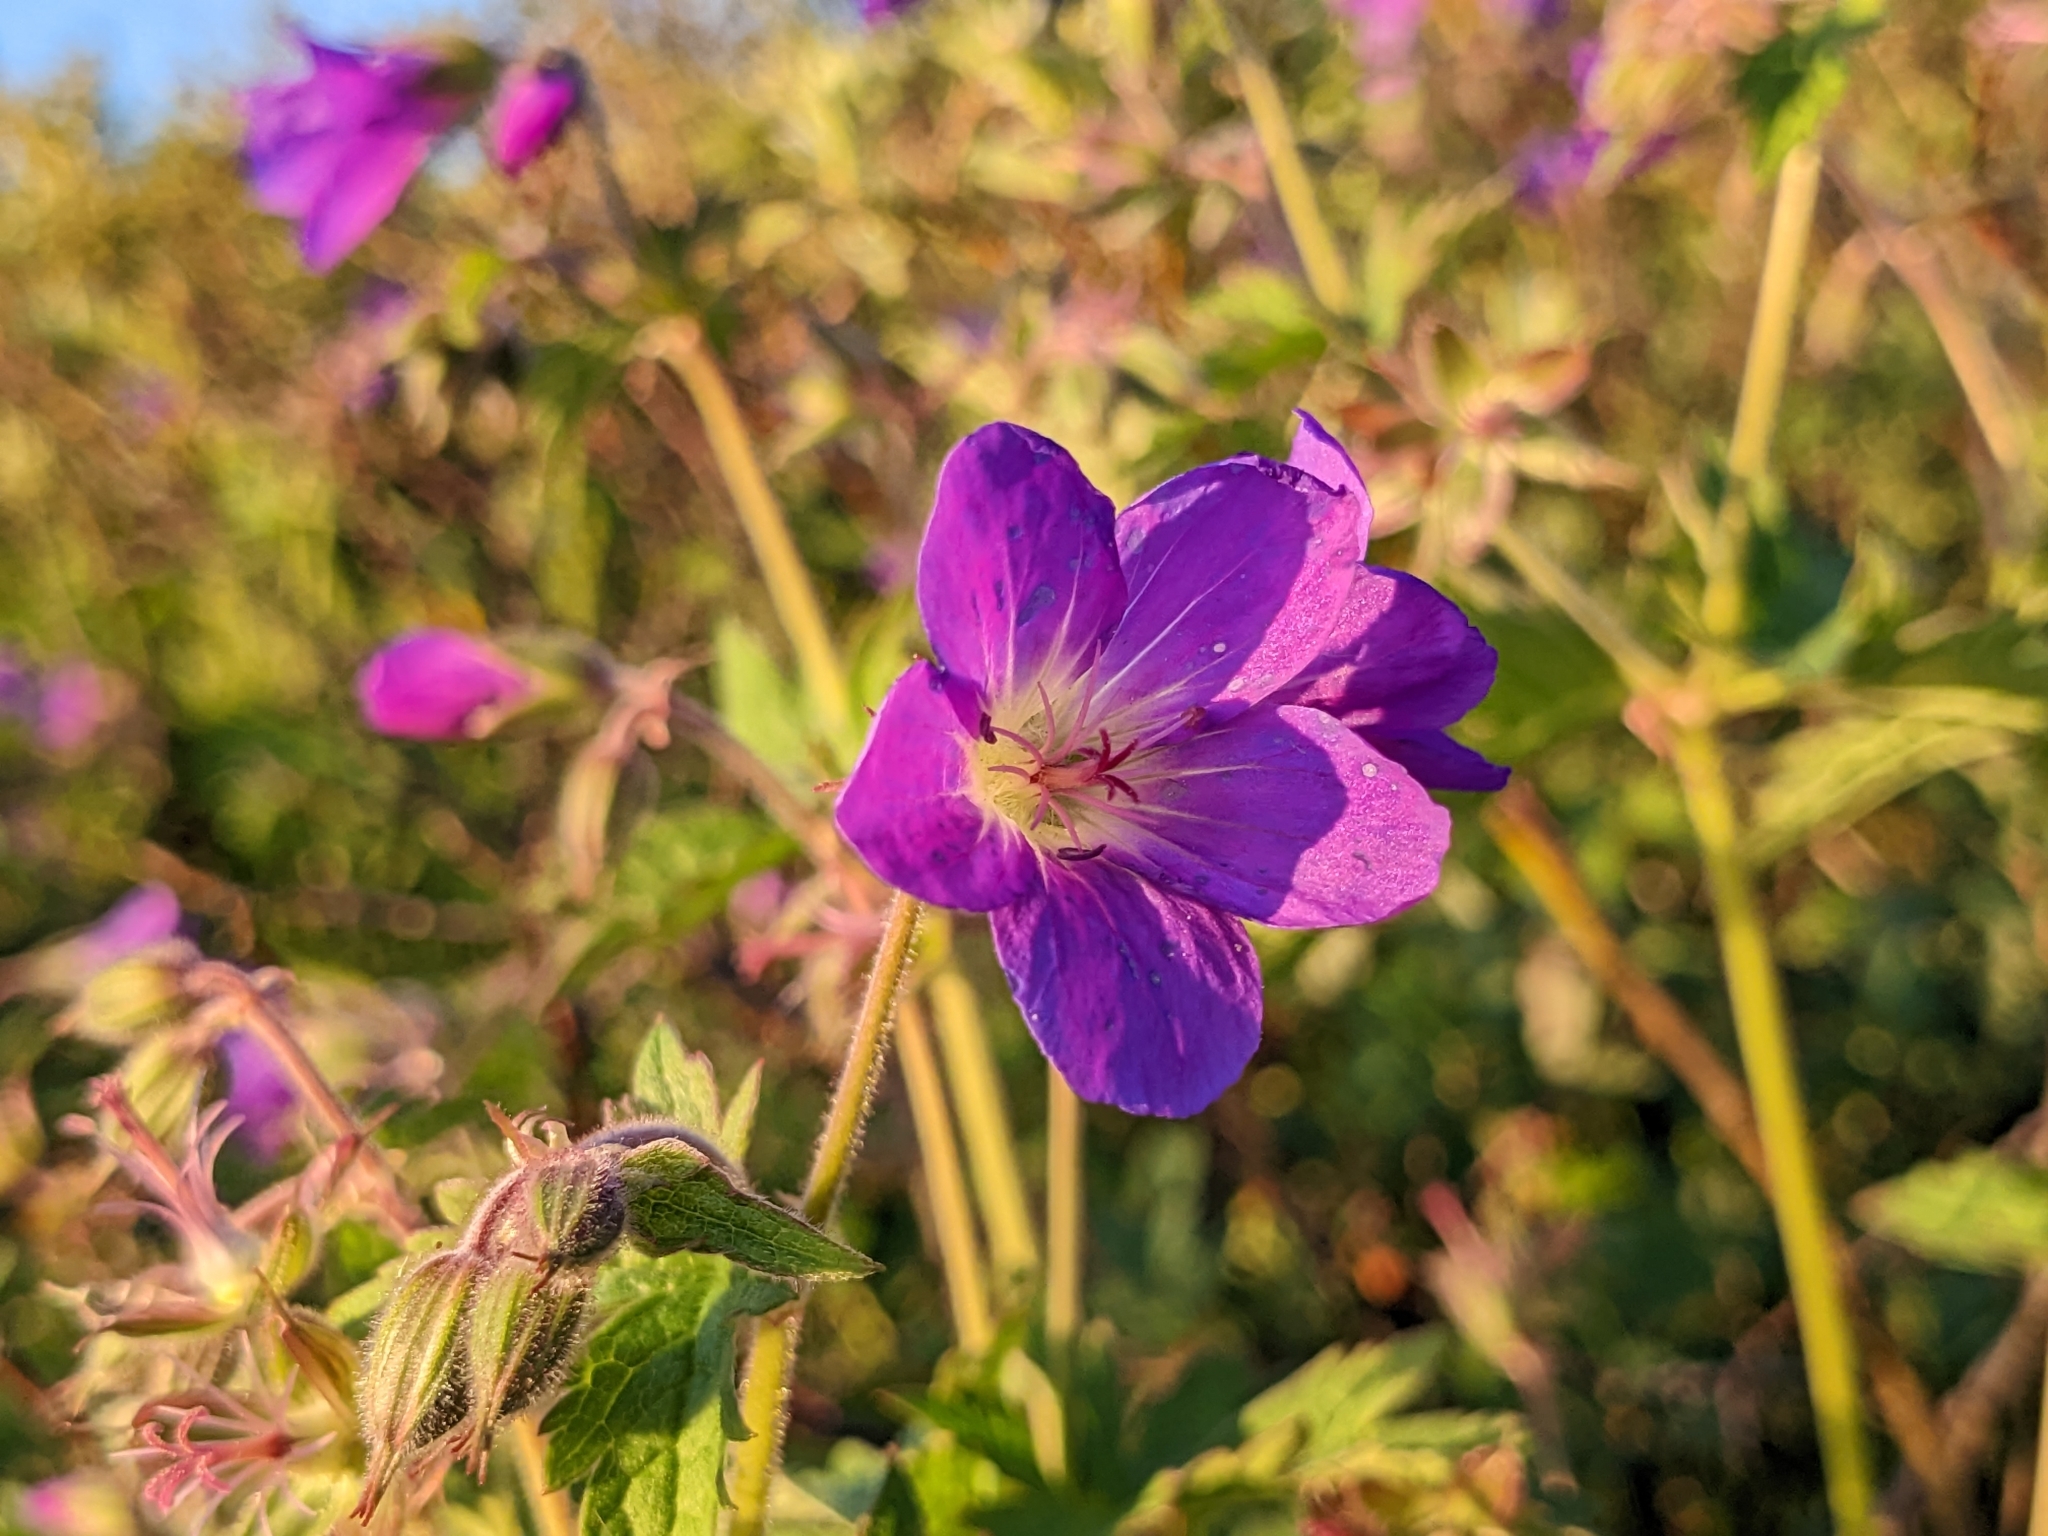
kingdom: Plantae
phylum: Tracheophyta
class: Magnoliopsida
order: Geraniales
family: Geraniaceae
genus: Geranium
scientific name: Geranium sylvaticum
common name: Wood crane's-bill
